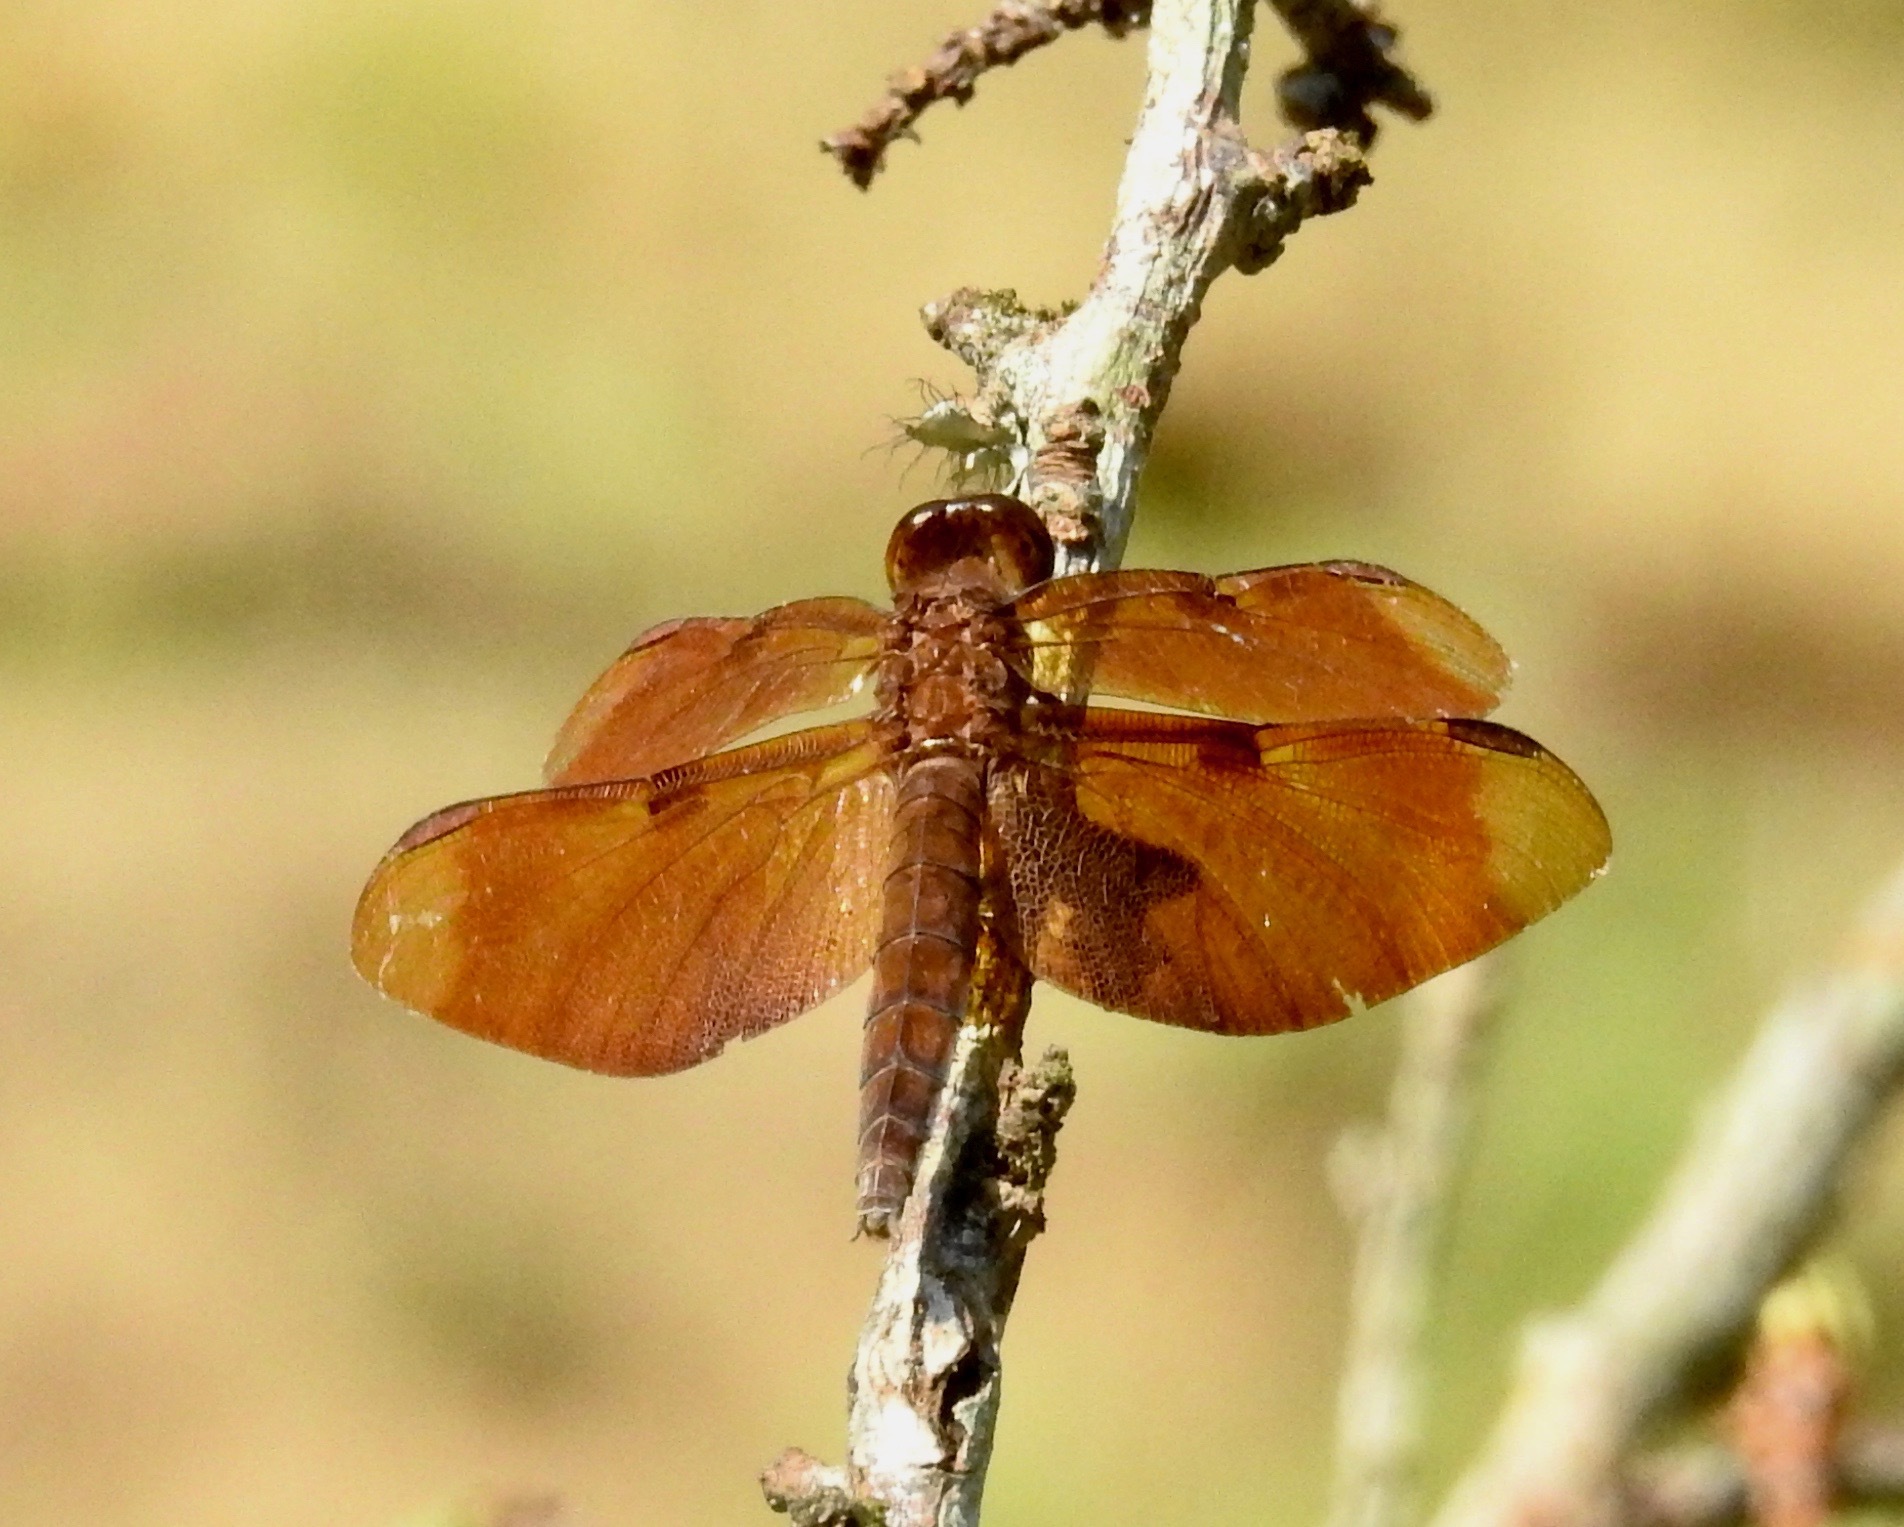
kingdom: Animalia
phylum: Arthropoda
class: Insecta
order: Odonata
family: Libellulidae
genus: Neurothemis
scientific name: Neurothemis fulvia
